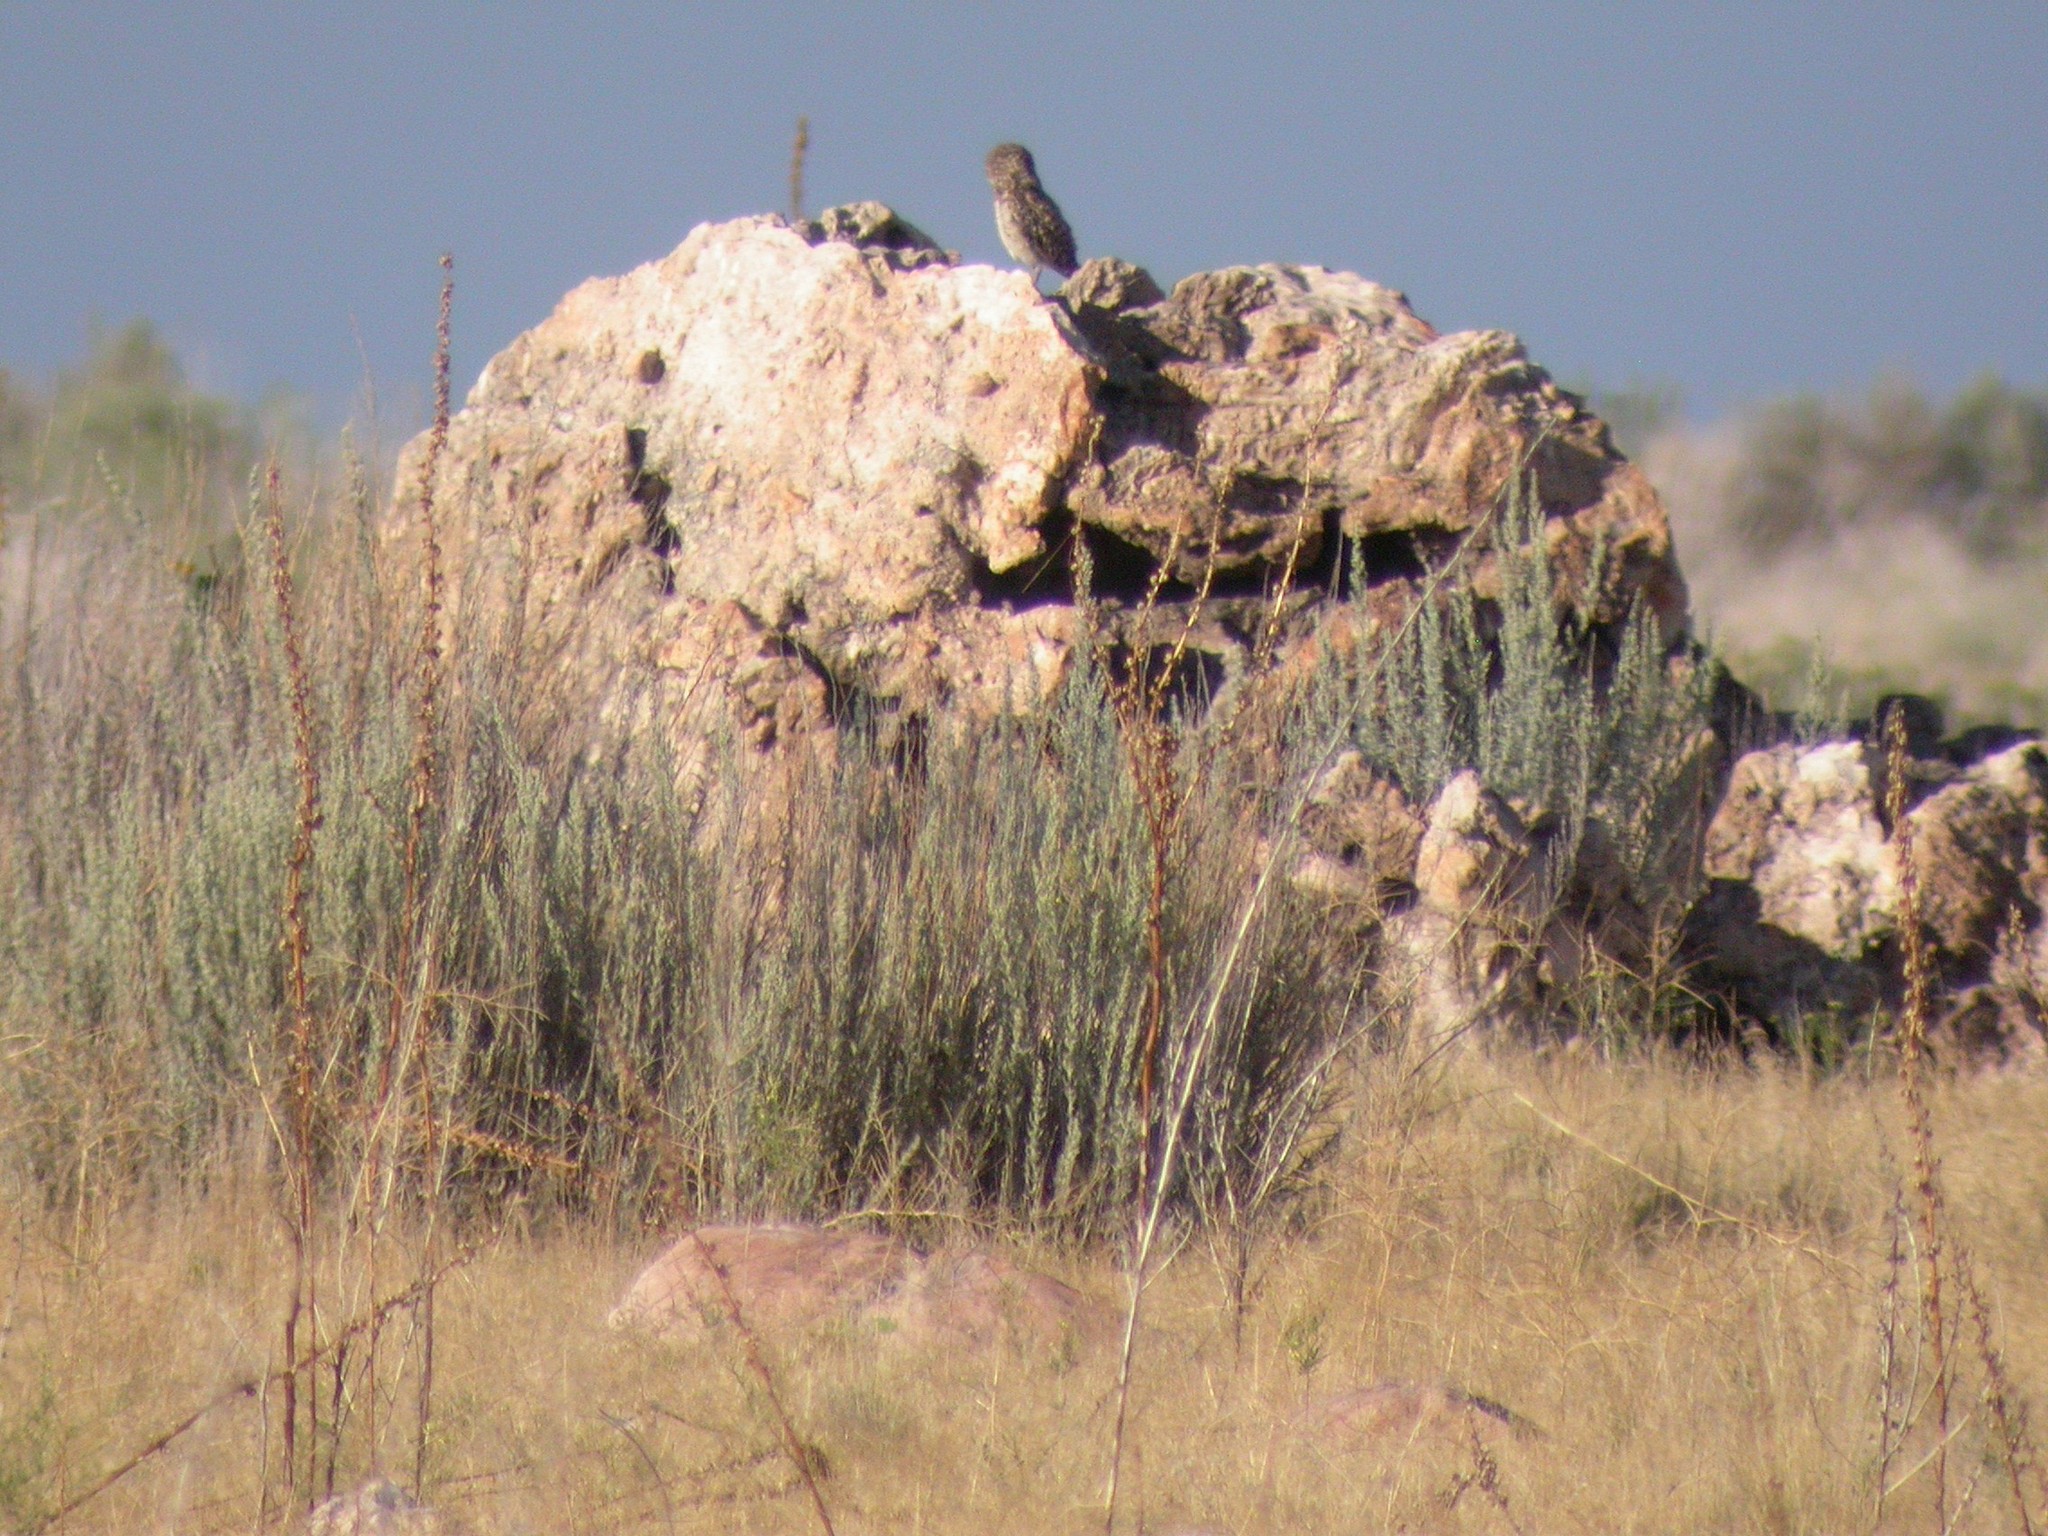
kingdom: Animalia
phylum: Chordata
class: Aves
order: Strigiformes
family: Strigidae
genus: Athene
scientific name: Athene cunicularia
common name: Burrowing owl
